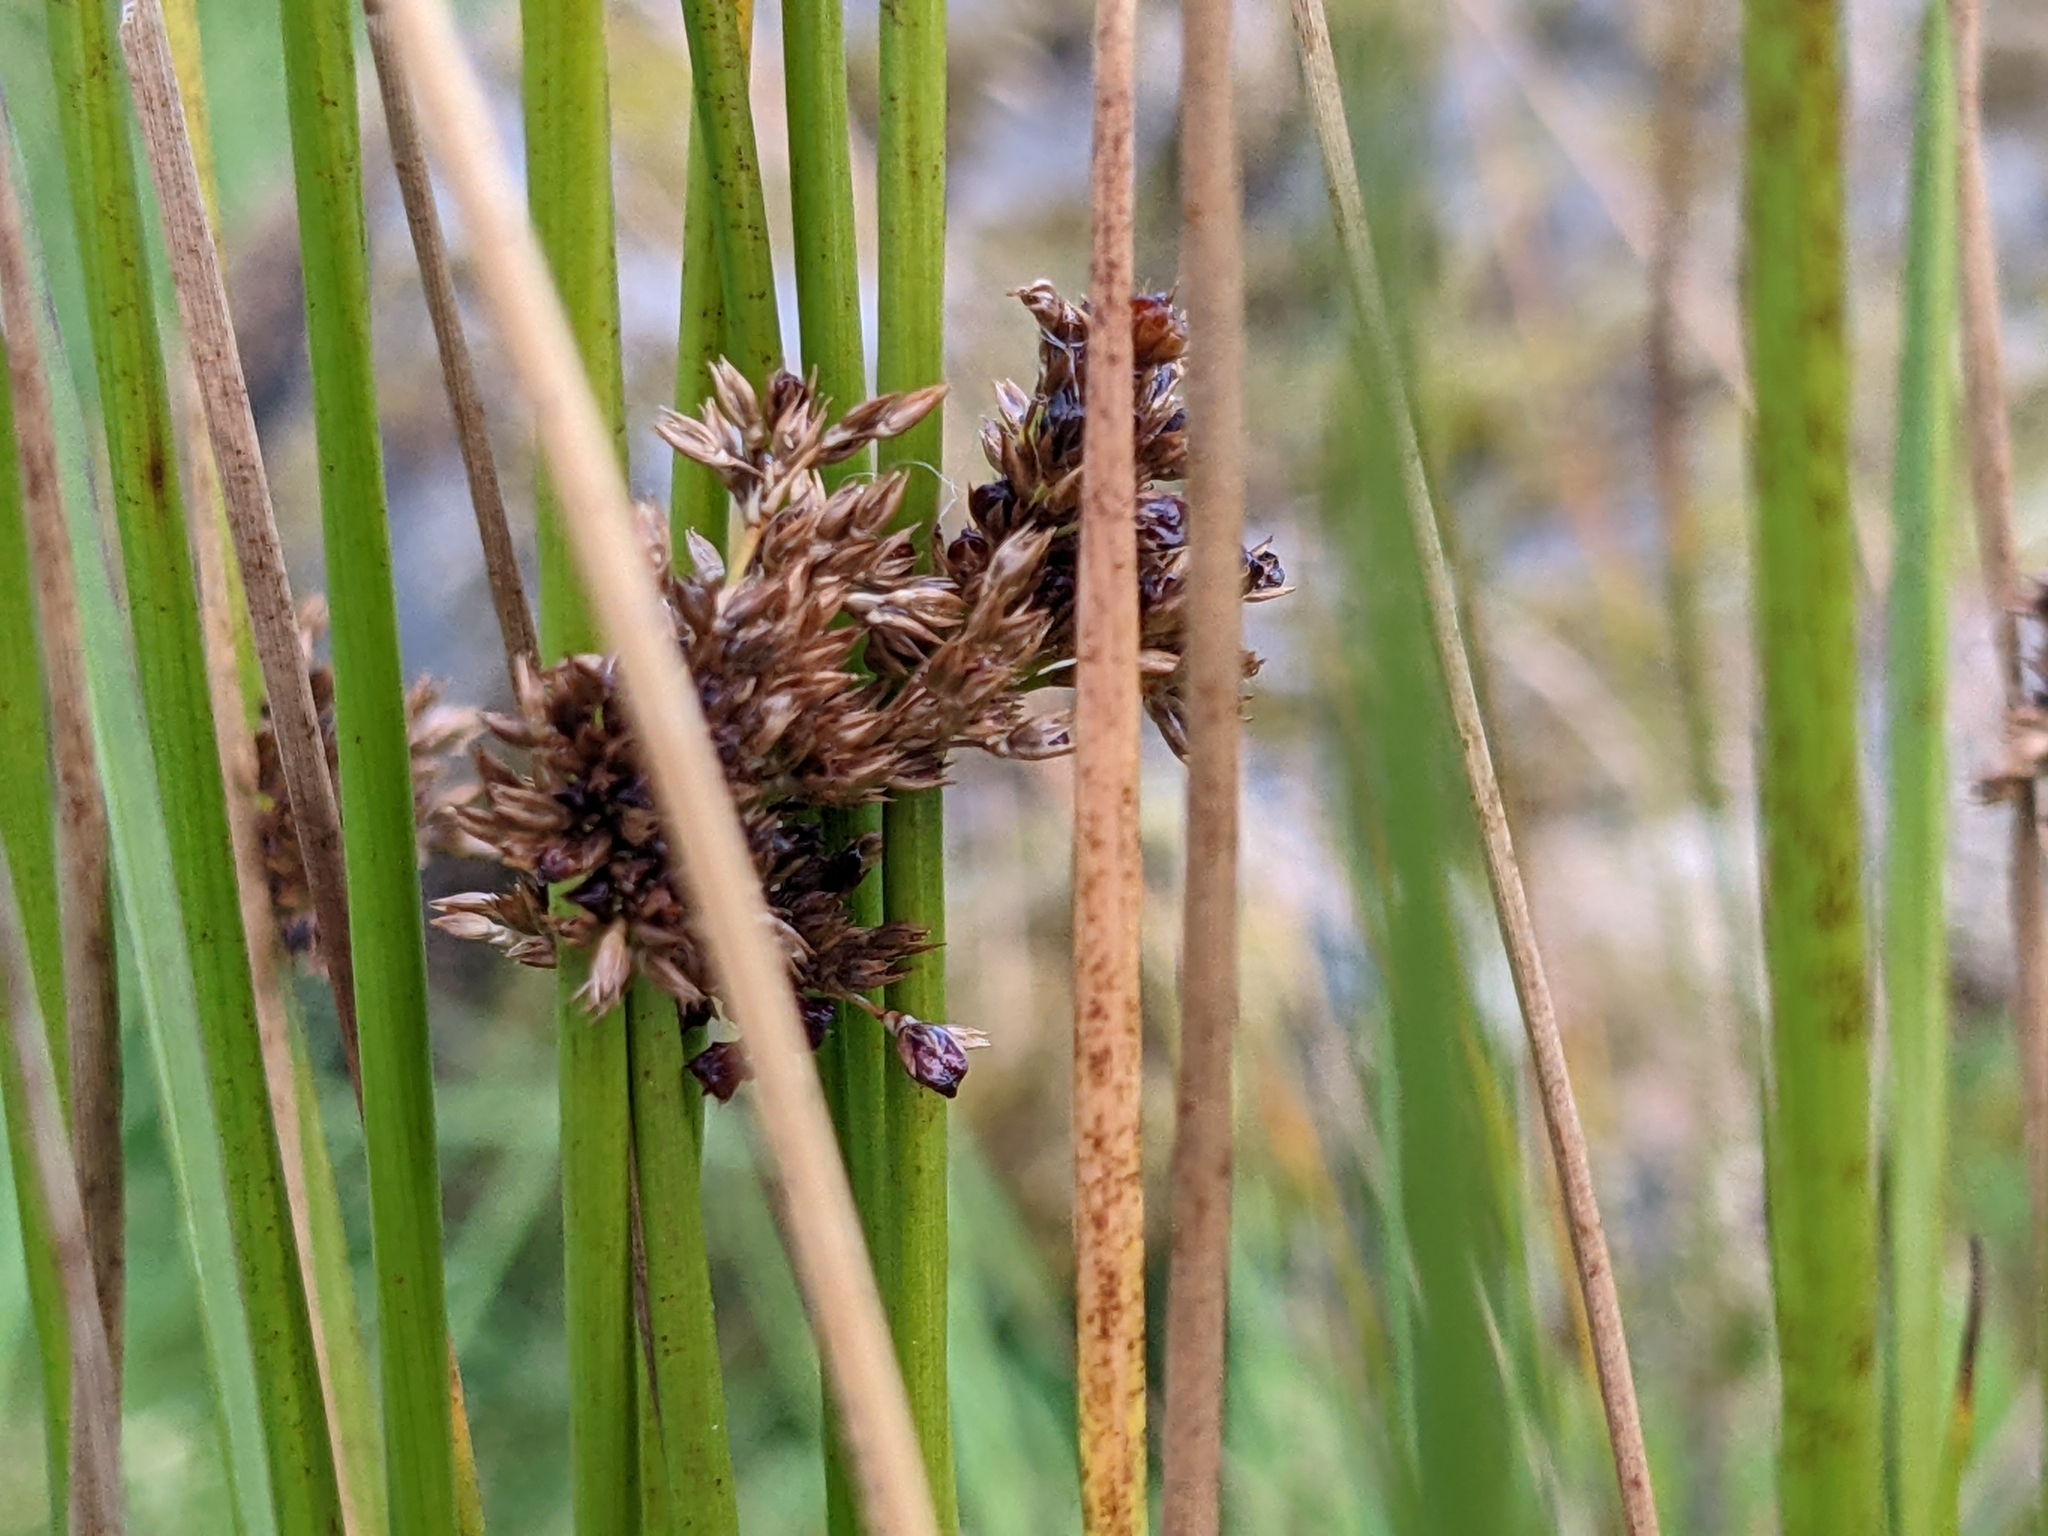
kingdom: Plantae
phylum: Tracheophyta
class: Liliopsida
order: Poales
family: Juncaceae
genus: Juncus
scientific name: Juncus effusus
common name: Soft rush
